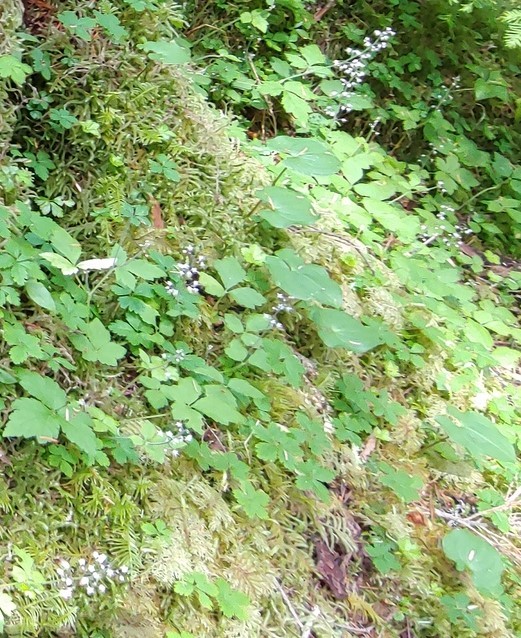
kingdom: Plantae
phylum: Tracheophyta
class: Magnoliopsida
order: Saxifragales
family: Saxifragaceae
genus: Tiarella
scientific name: Tiarella trifoliata
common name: Sugar-scoop
